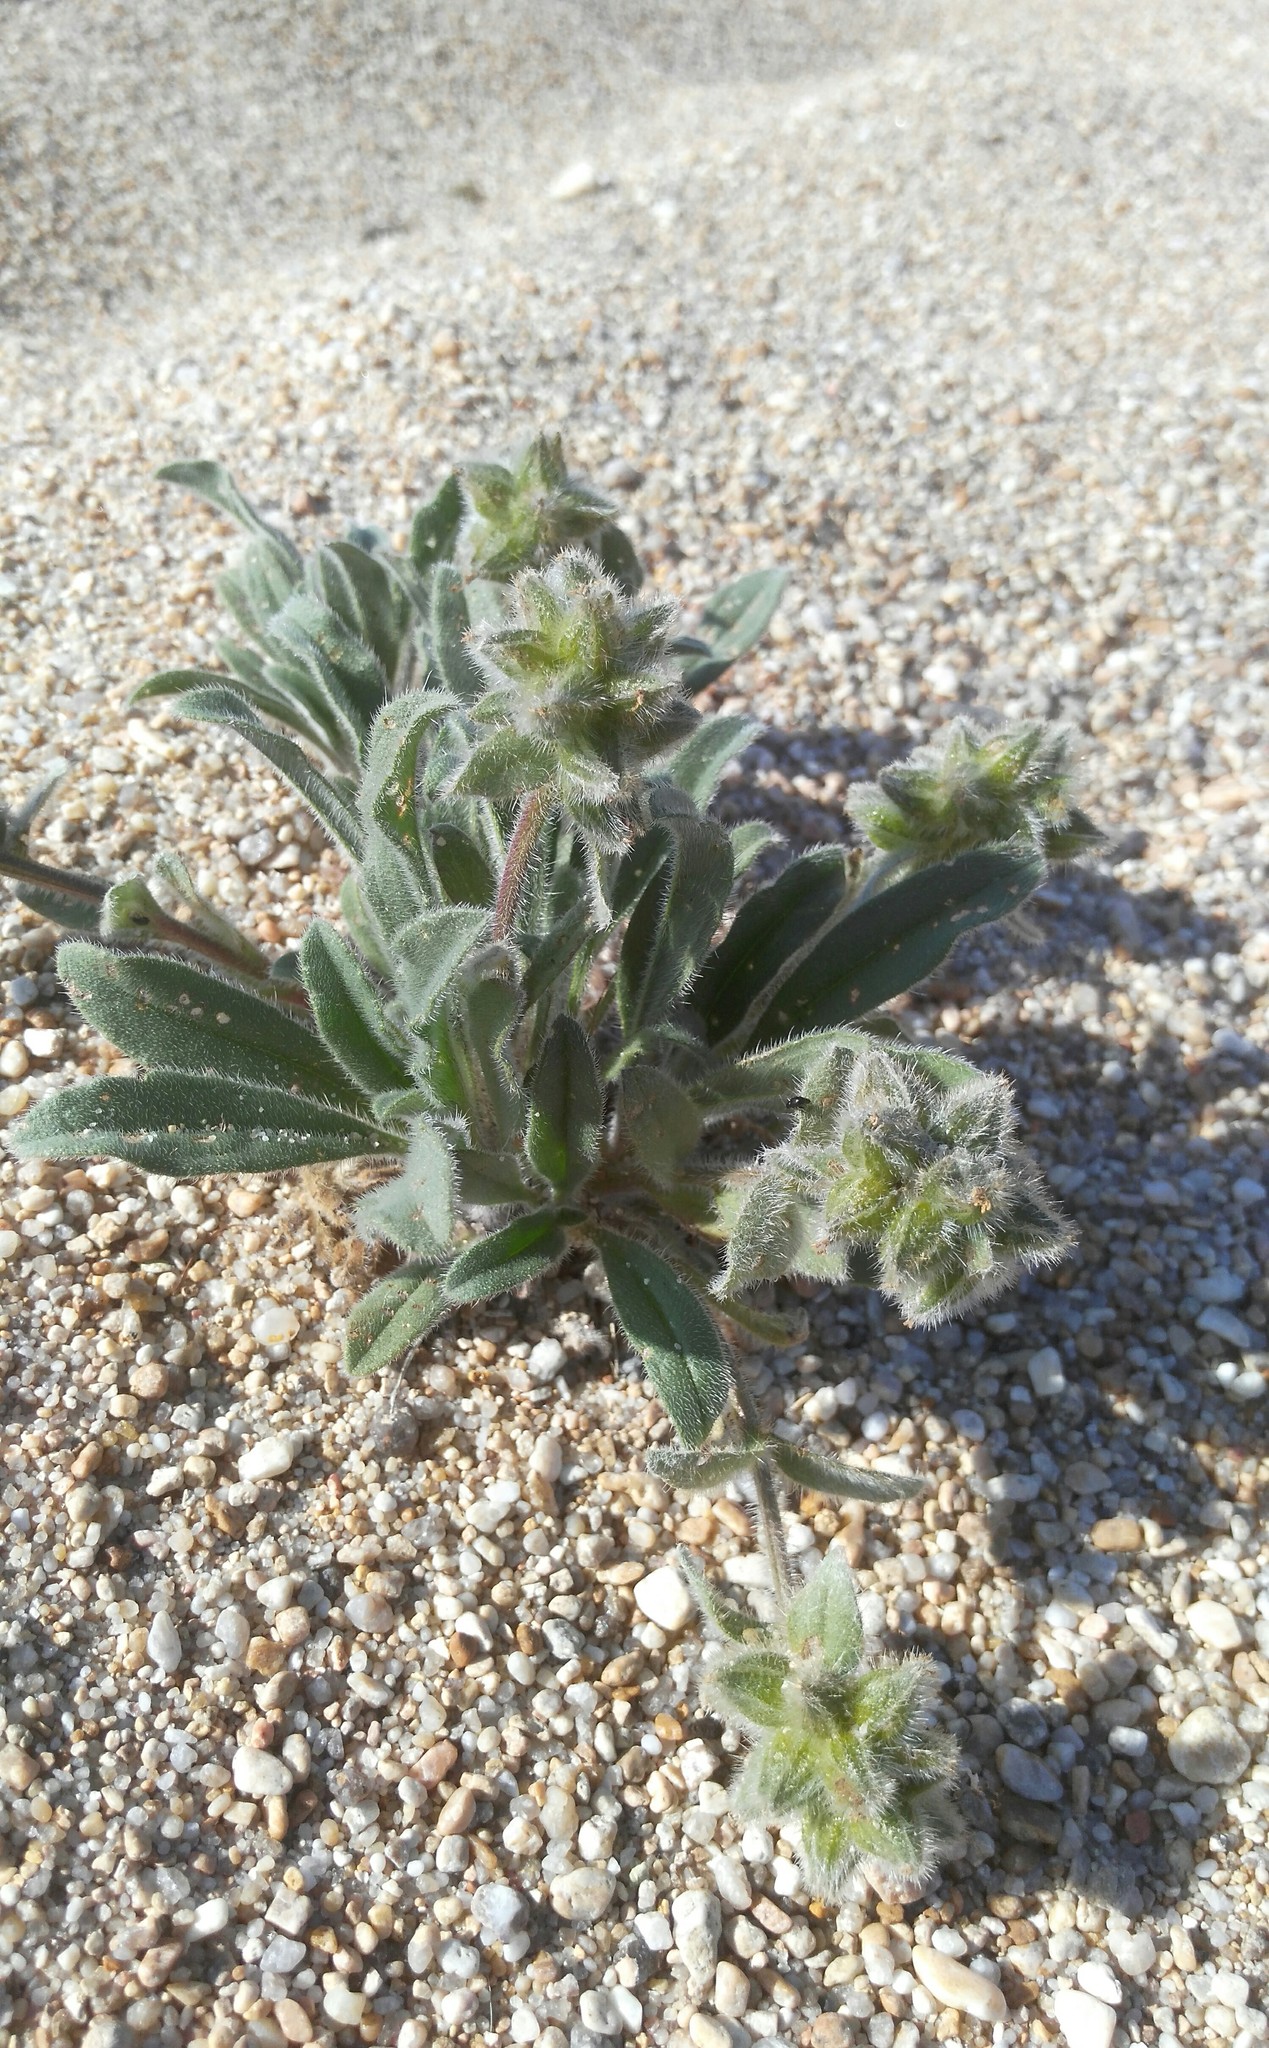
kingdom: Plantae
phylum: Tracheophyta
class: Magnoliopsida
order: Boraginales
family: Boraginaceae
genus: Craniospermum
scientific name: Craniospermum subvillosum
